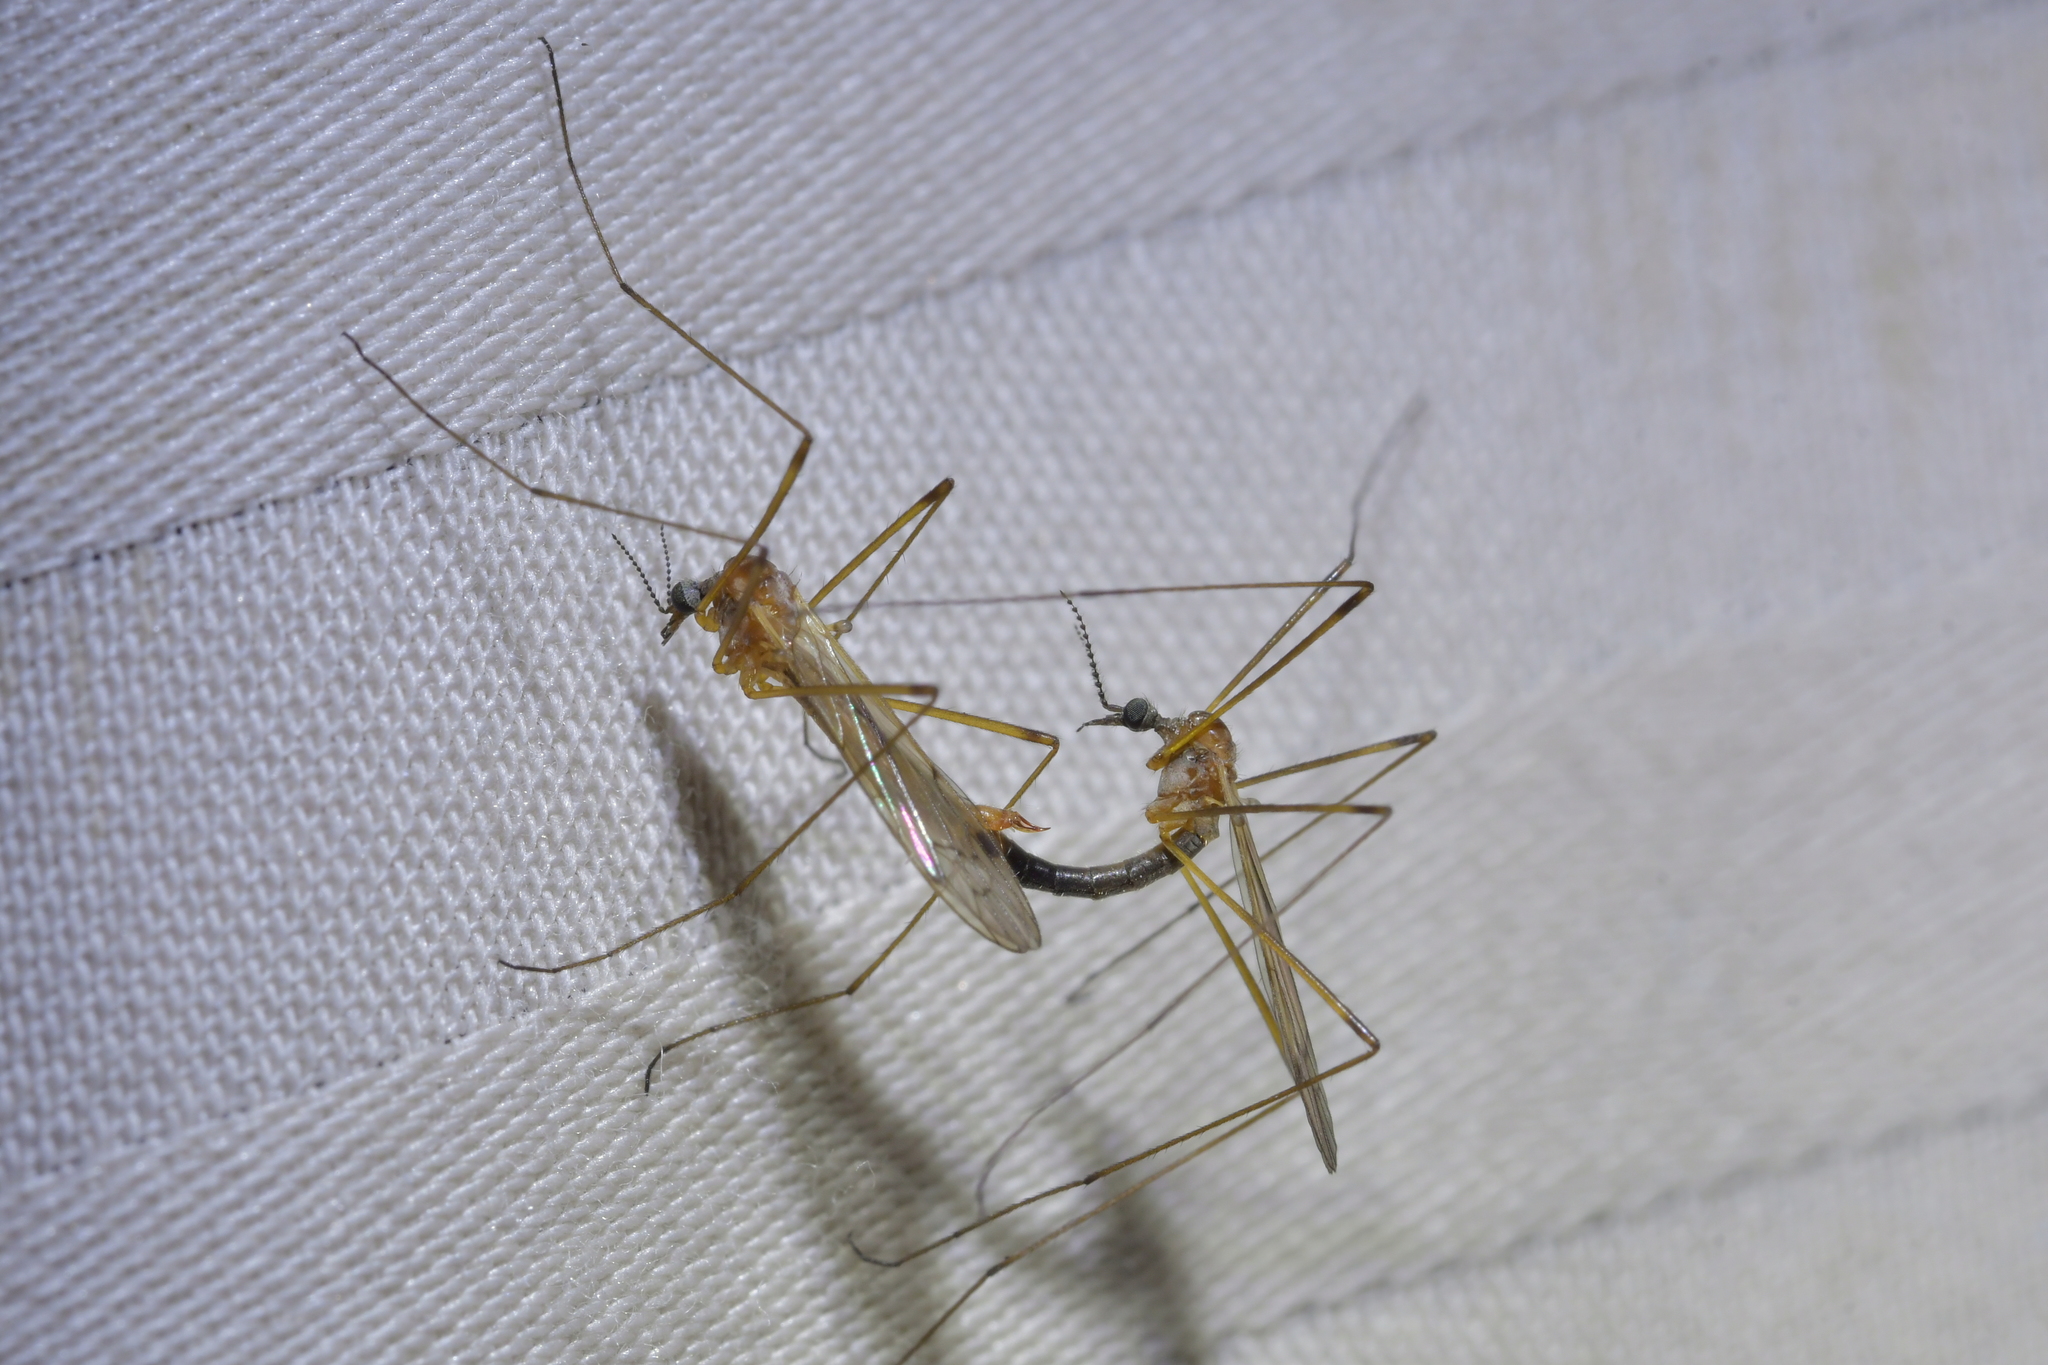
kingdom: Animalia
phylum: Arthropoda
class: Insecta
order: Diptera
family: Limoniidae
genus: Dicranomyia
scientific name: Dicranomyia cubitalis
